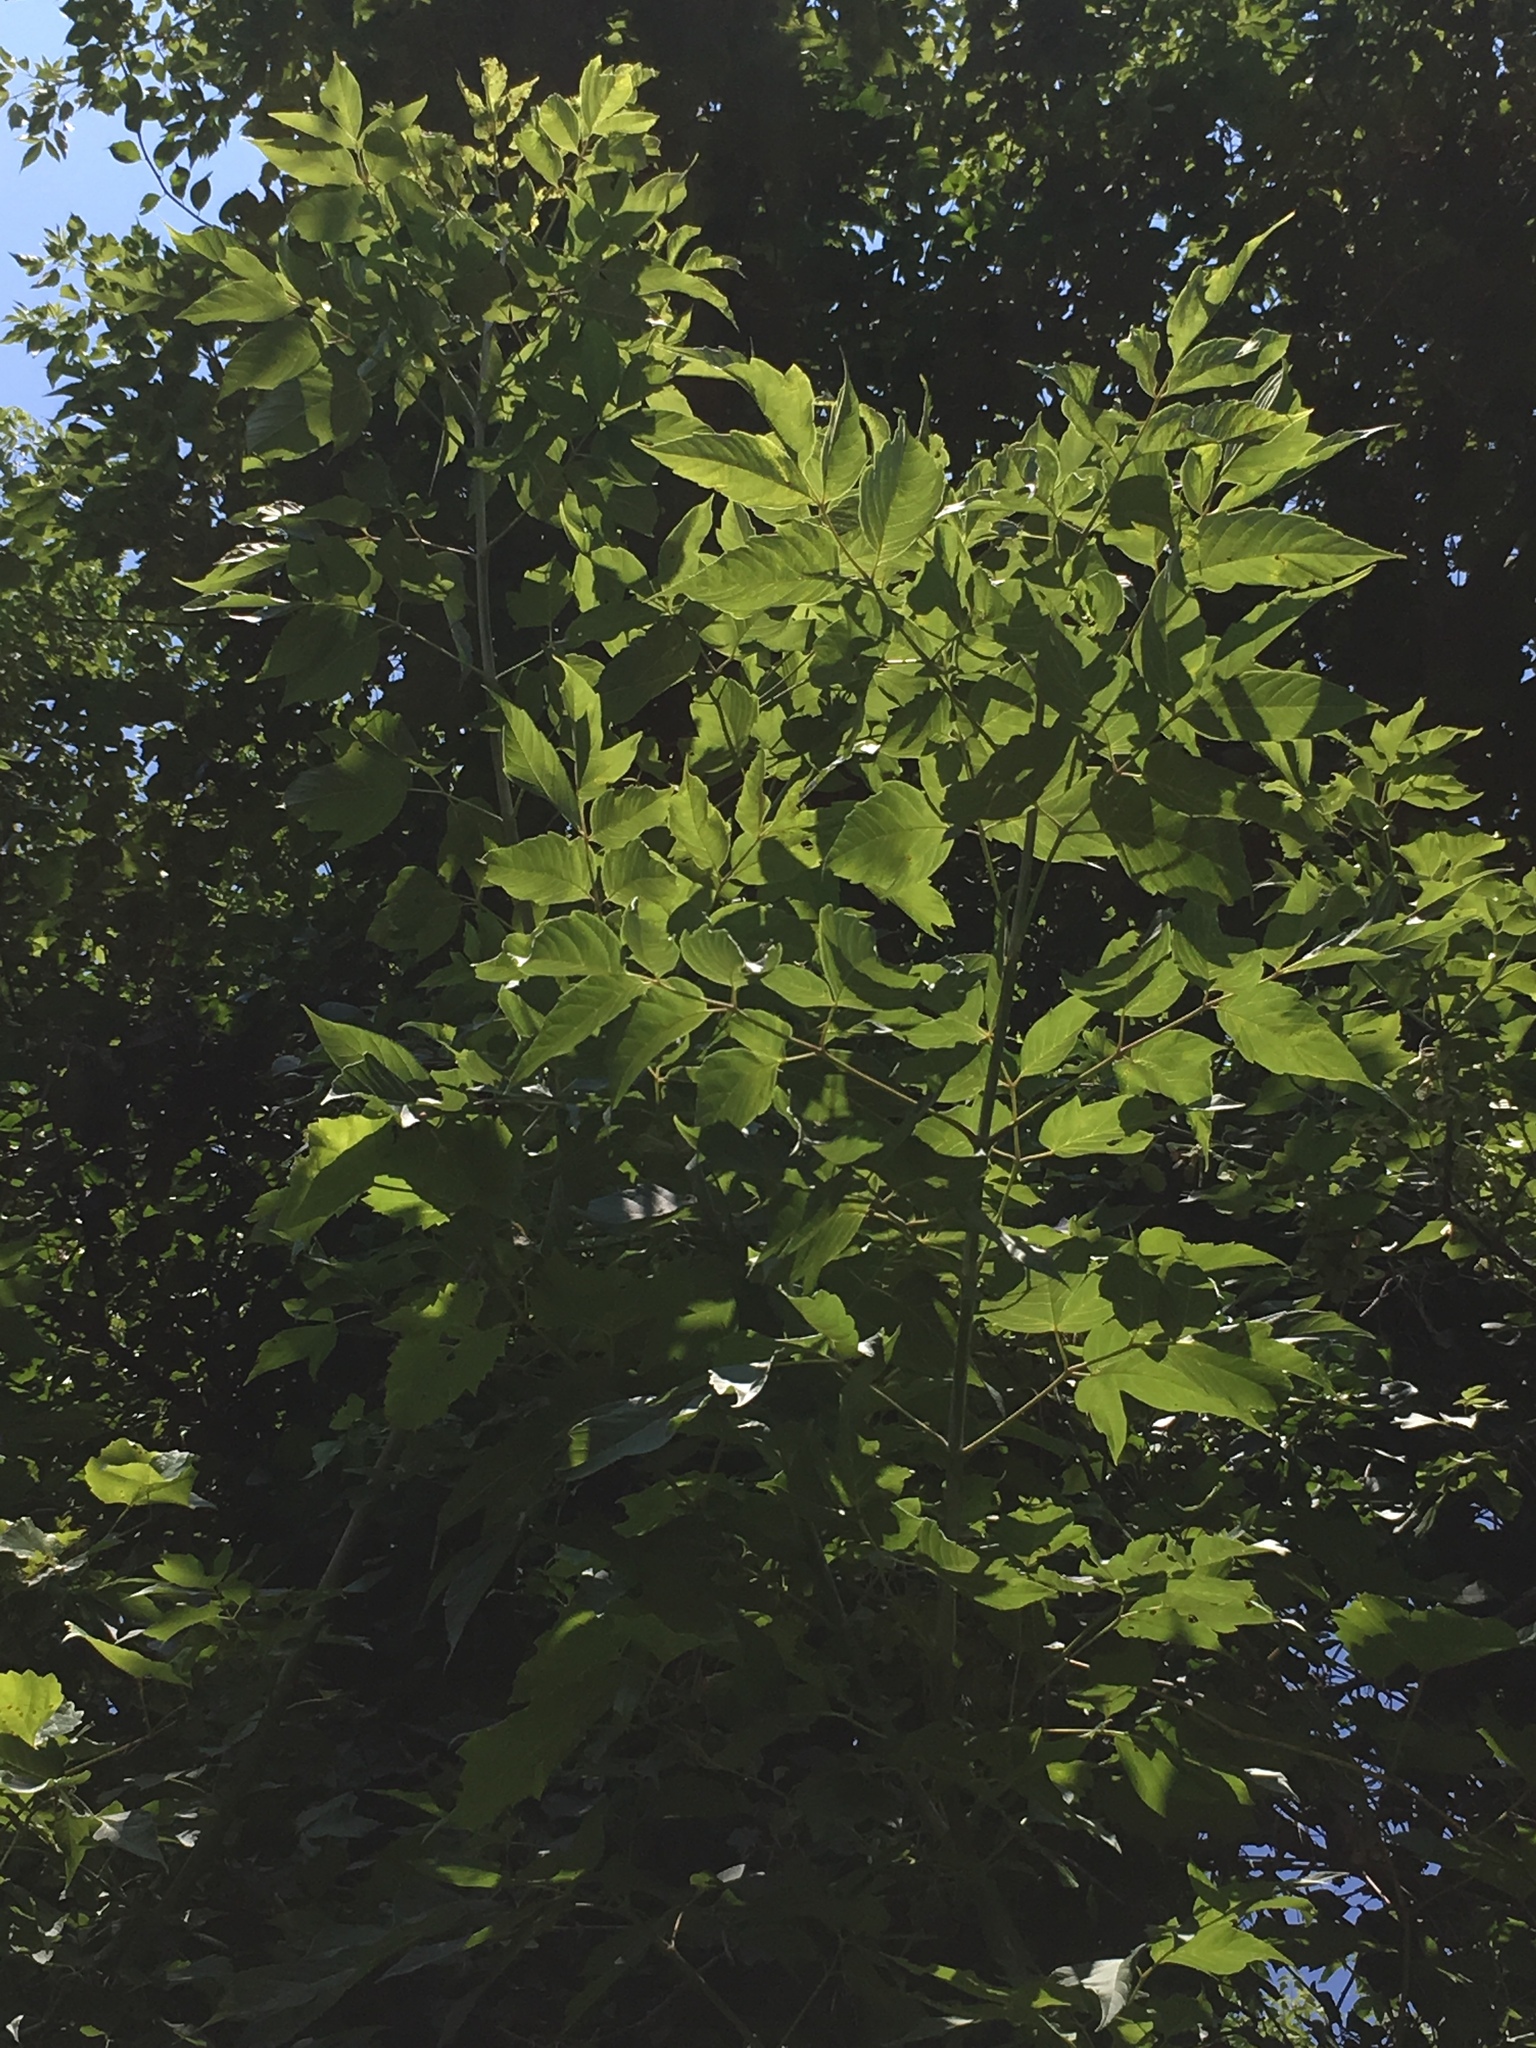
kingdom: Plantae
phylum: Tracheophyta
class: Magnoliopsida
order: Sapindales
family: Sapindaceae
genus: Acer
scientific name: Acer negundo
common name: Ashleaf maple
